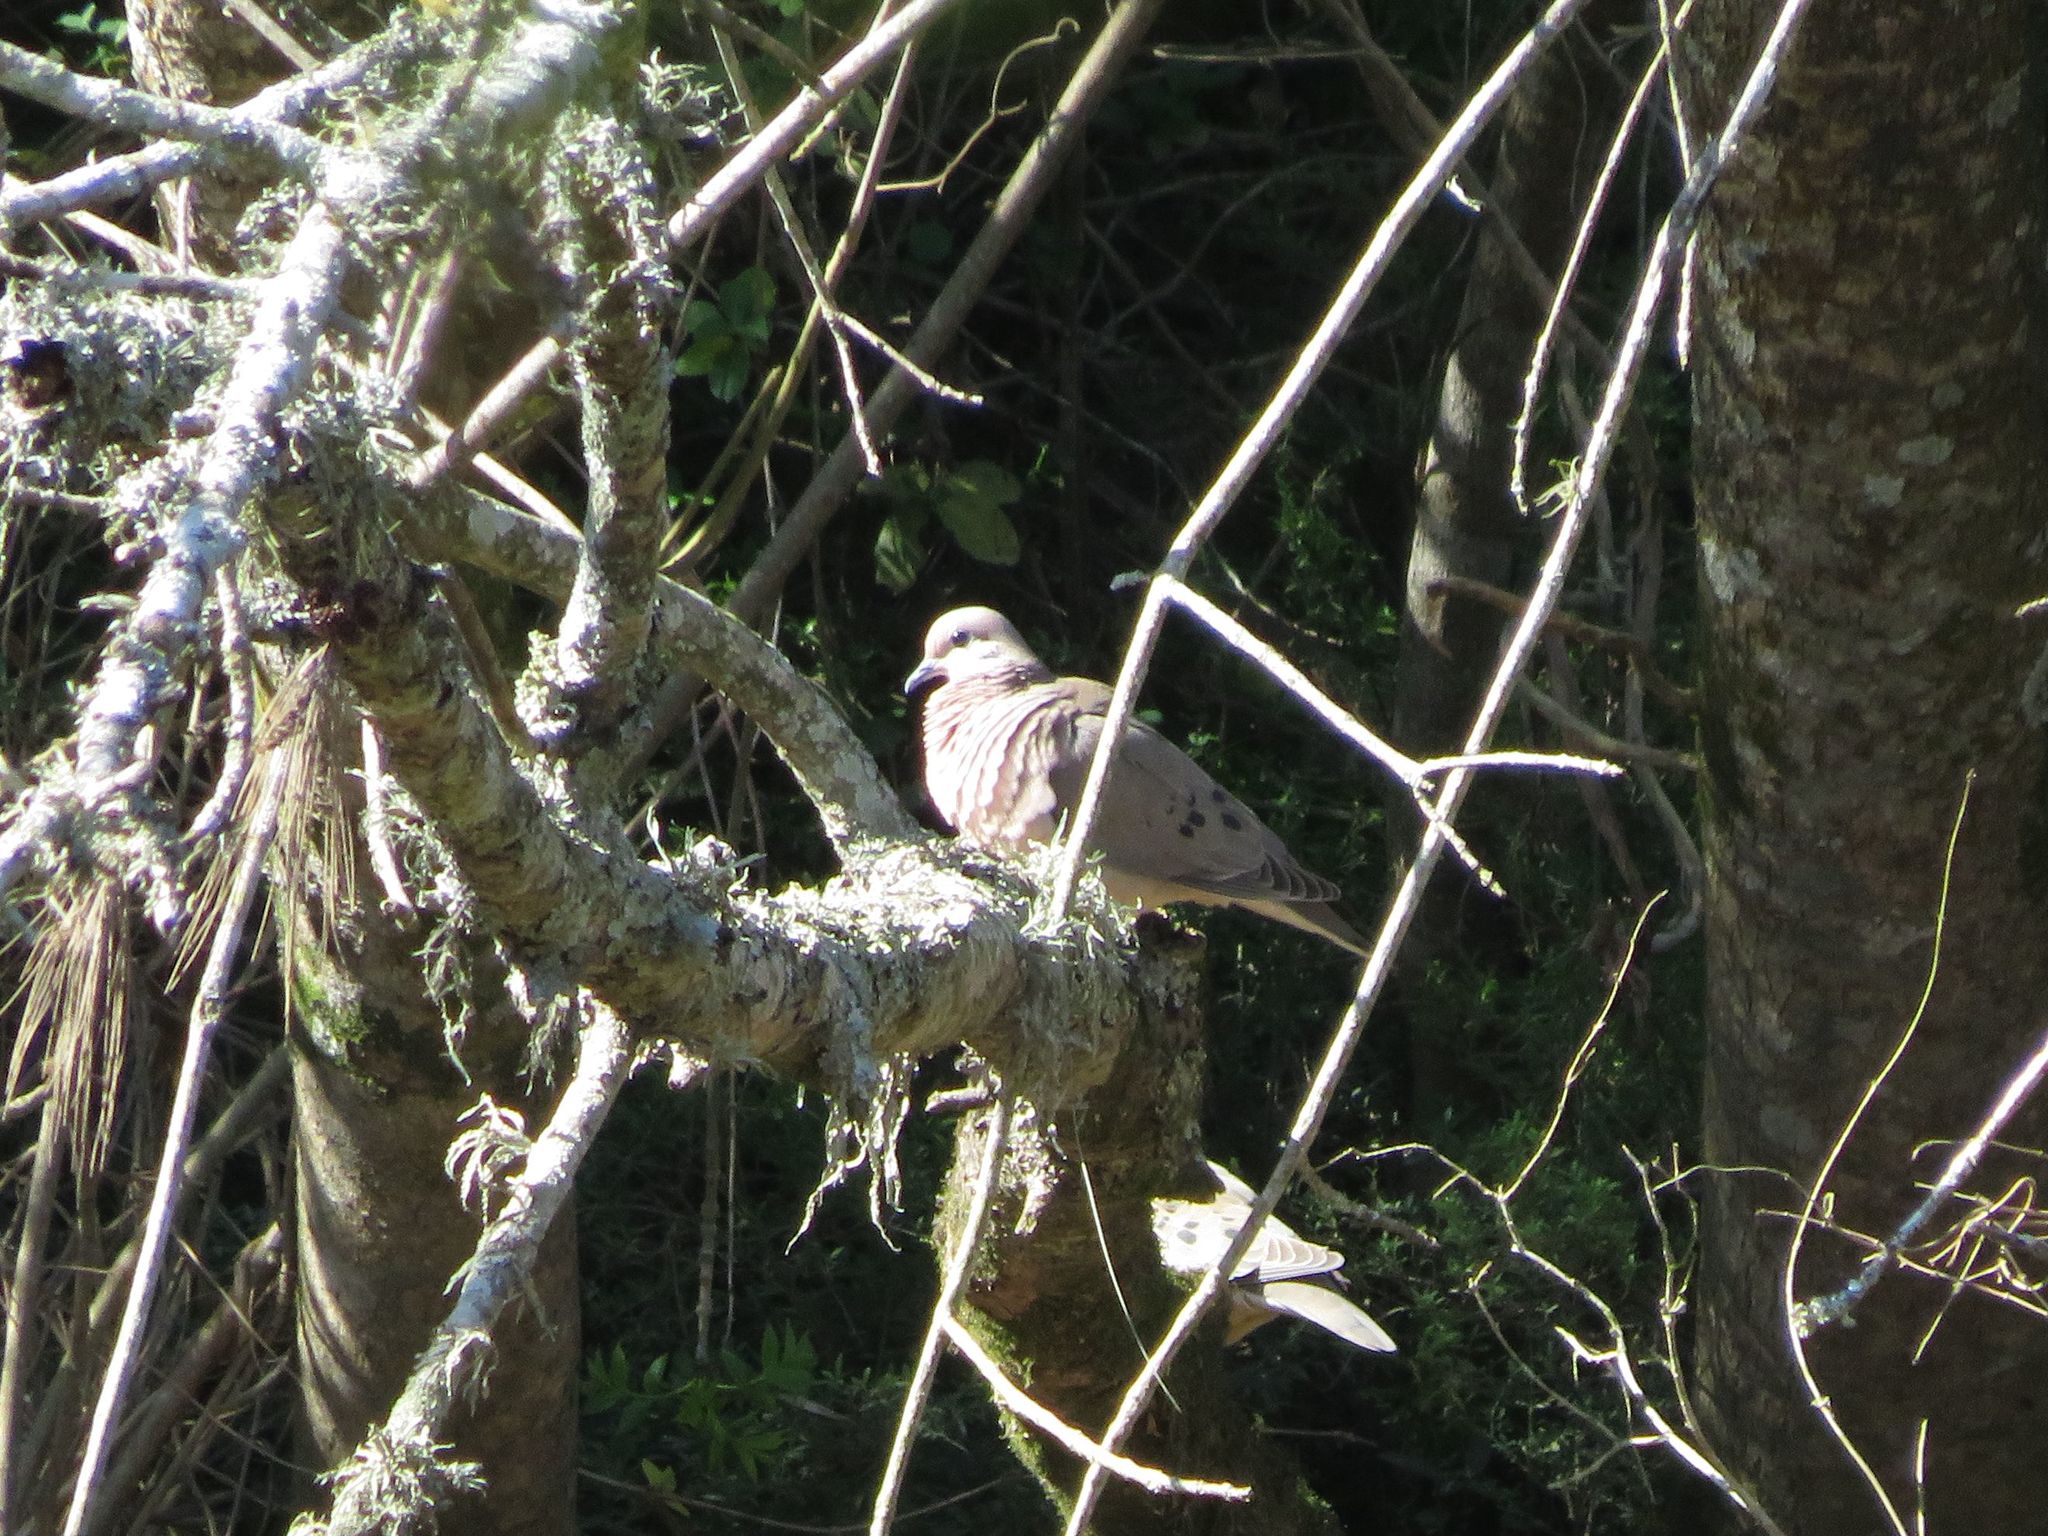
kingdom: Animalia
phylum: Chordata
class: Aves
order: Columbiformes
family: Columbidae
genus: Zenaida
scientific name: Zenaida auriculata
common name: Eared dove
